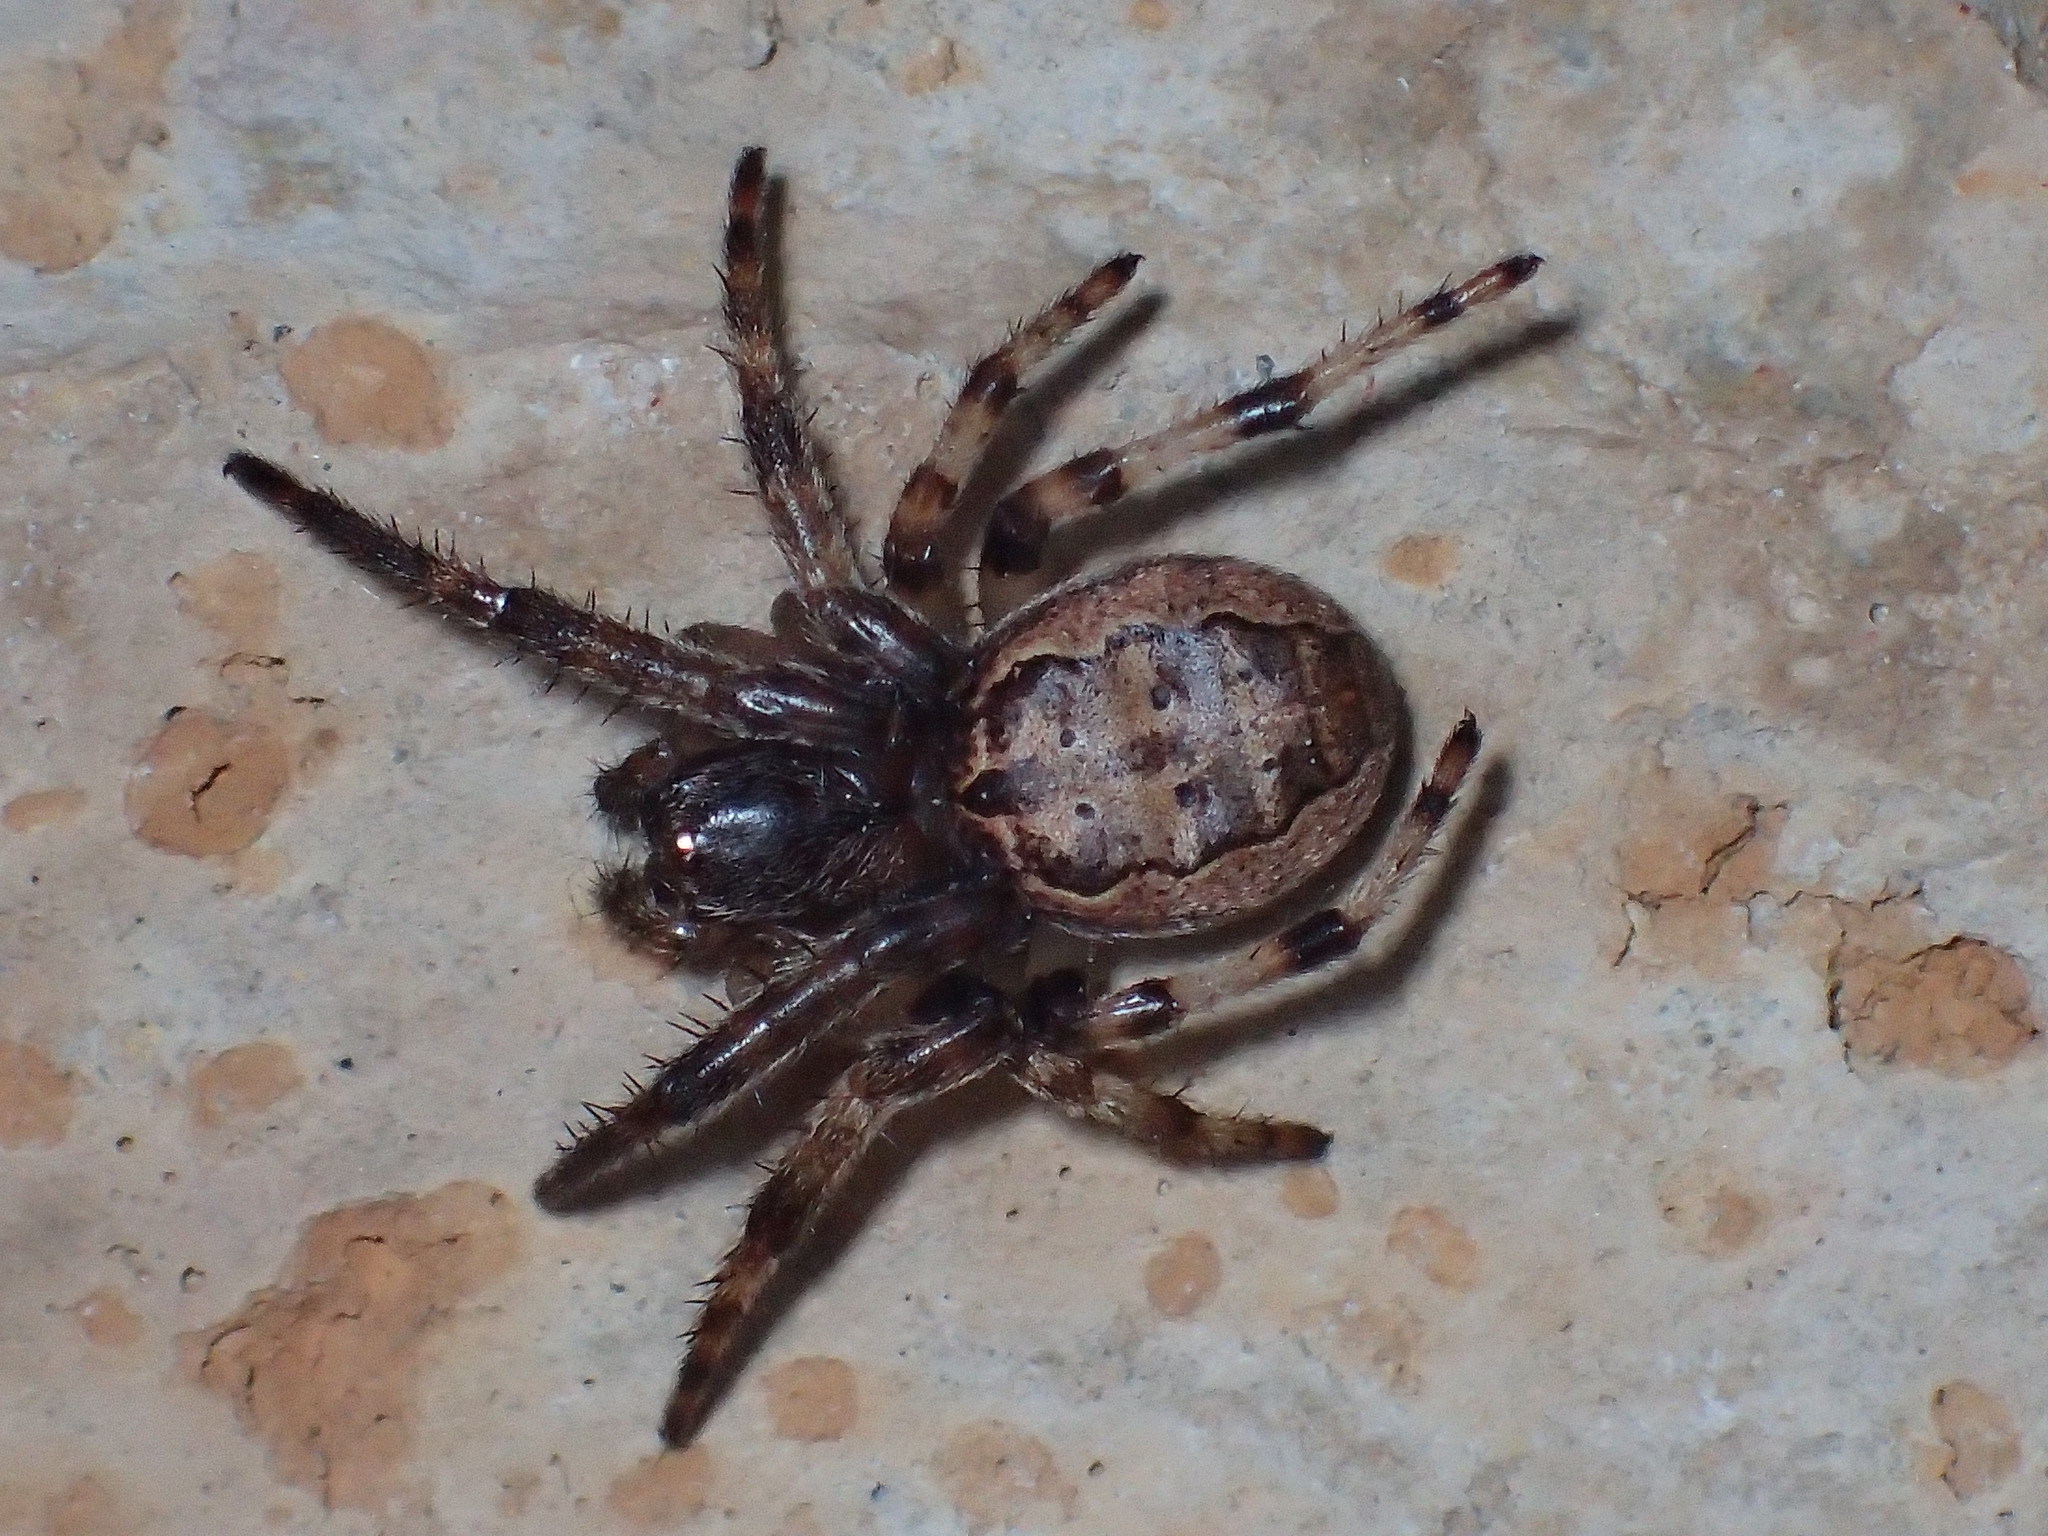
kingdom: Animalia
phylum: Arthropoda
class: Arachnida
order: Araneae
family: Araneidae
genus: Larinioides
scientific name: Larinioides cornutus
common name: Furrow orbweaver
